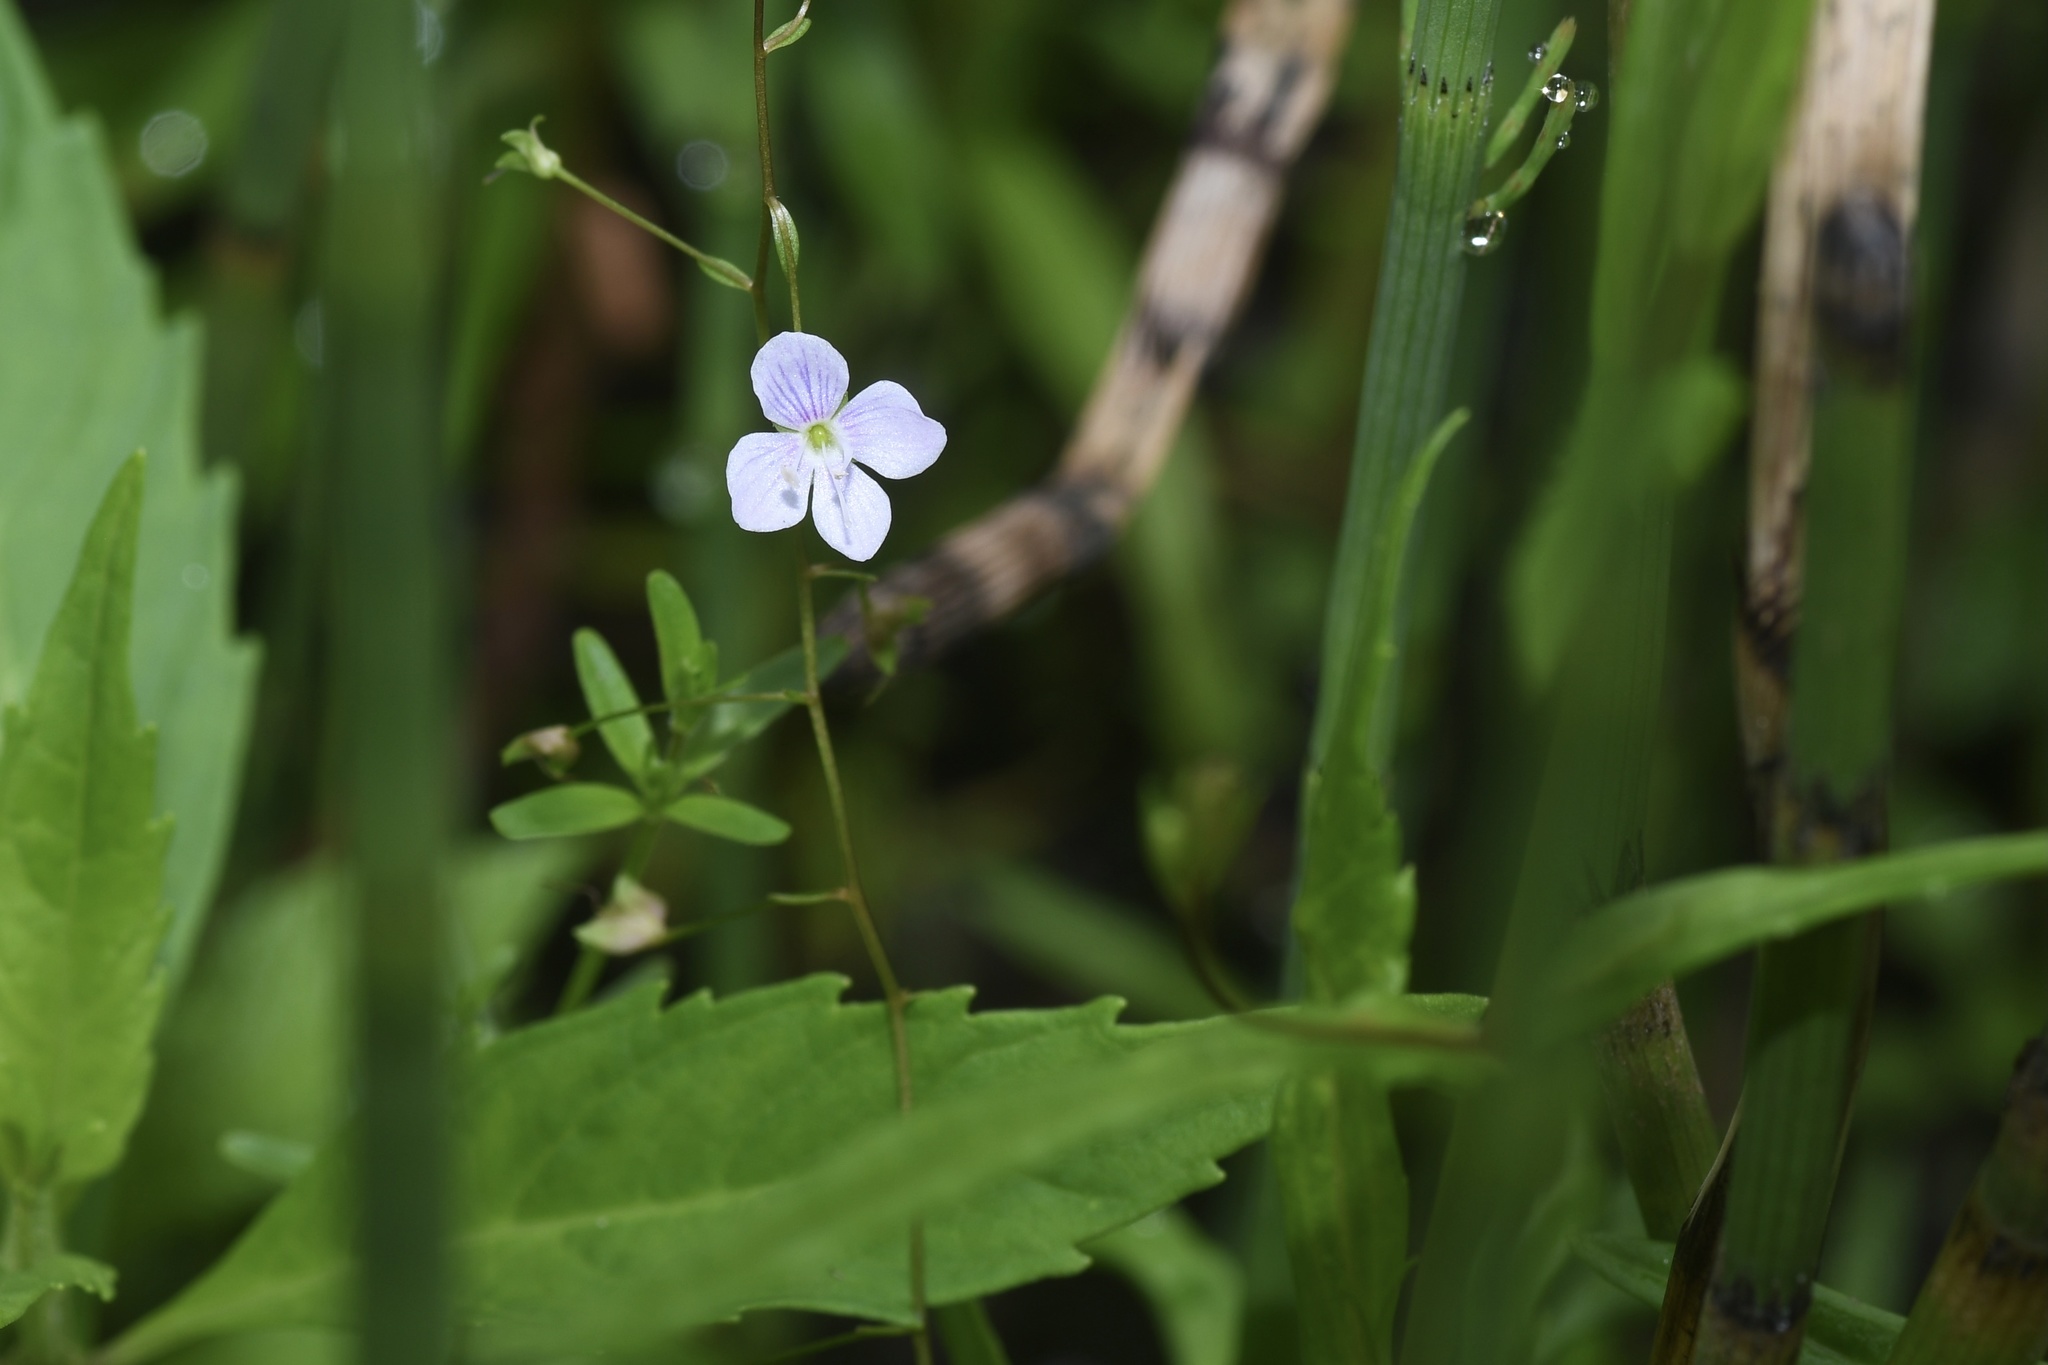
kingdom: Plantae
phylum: Tracheophyta
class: Magnoliopsida
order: Lamiales
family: Plantaginaceae
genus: Veronica
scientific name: Veronica scutellata
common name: Marsh speedwell
